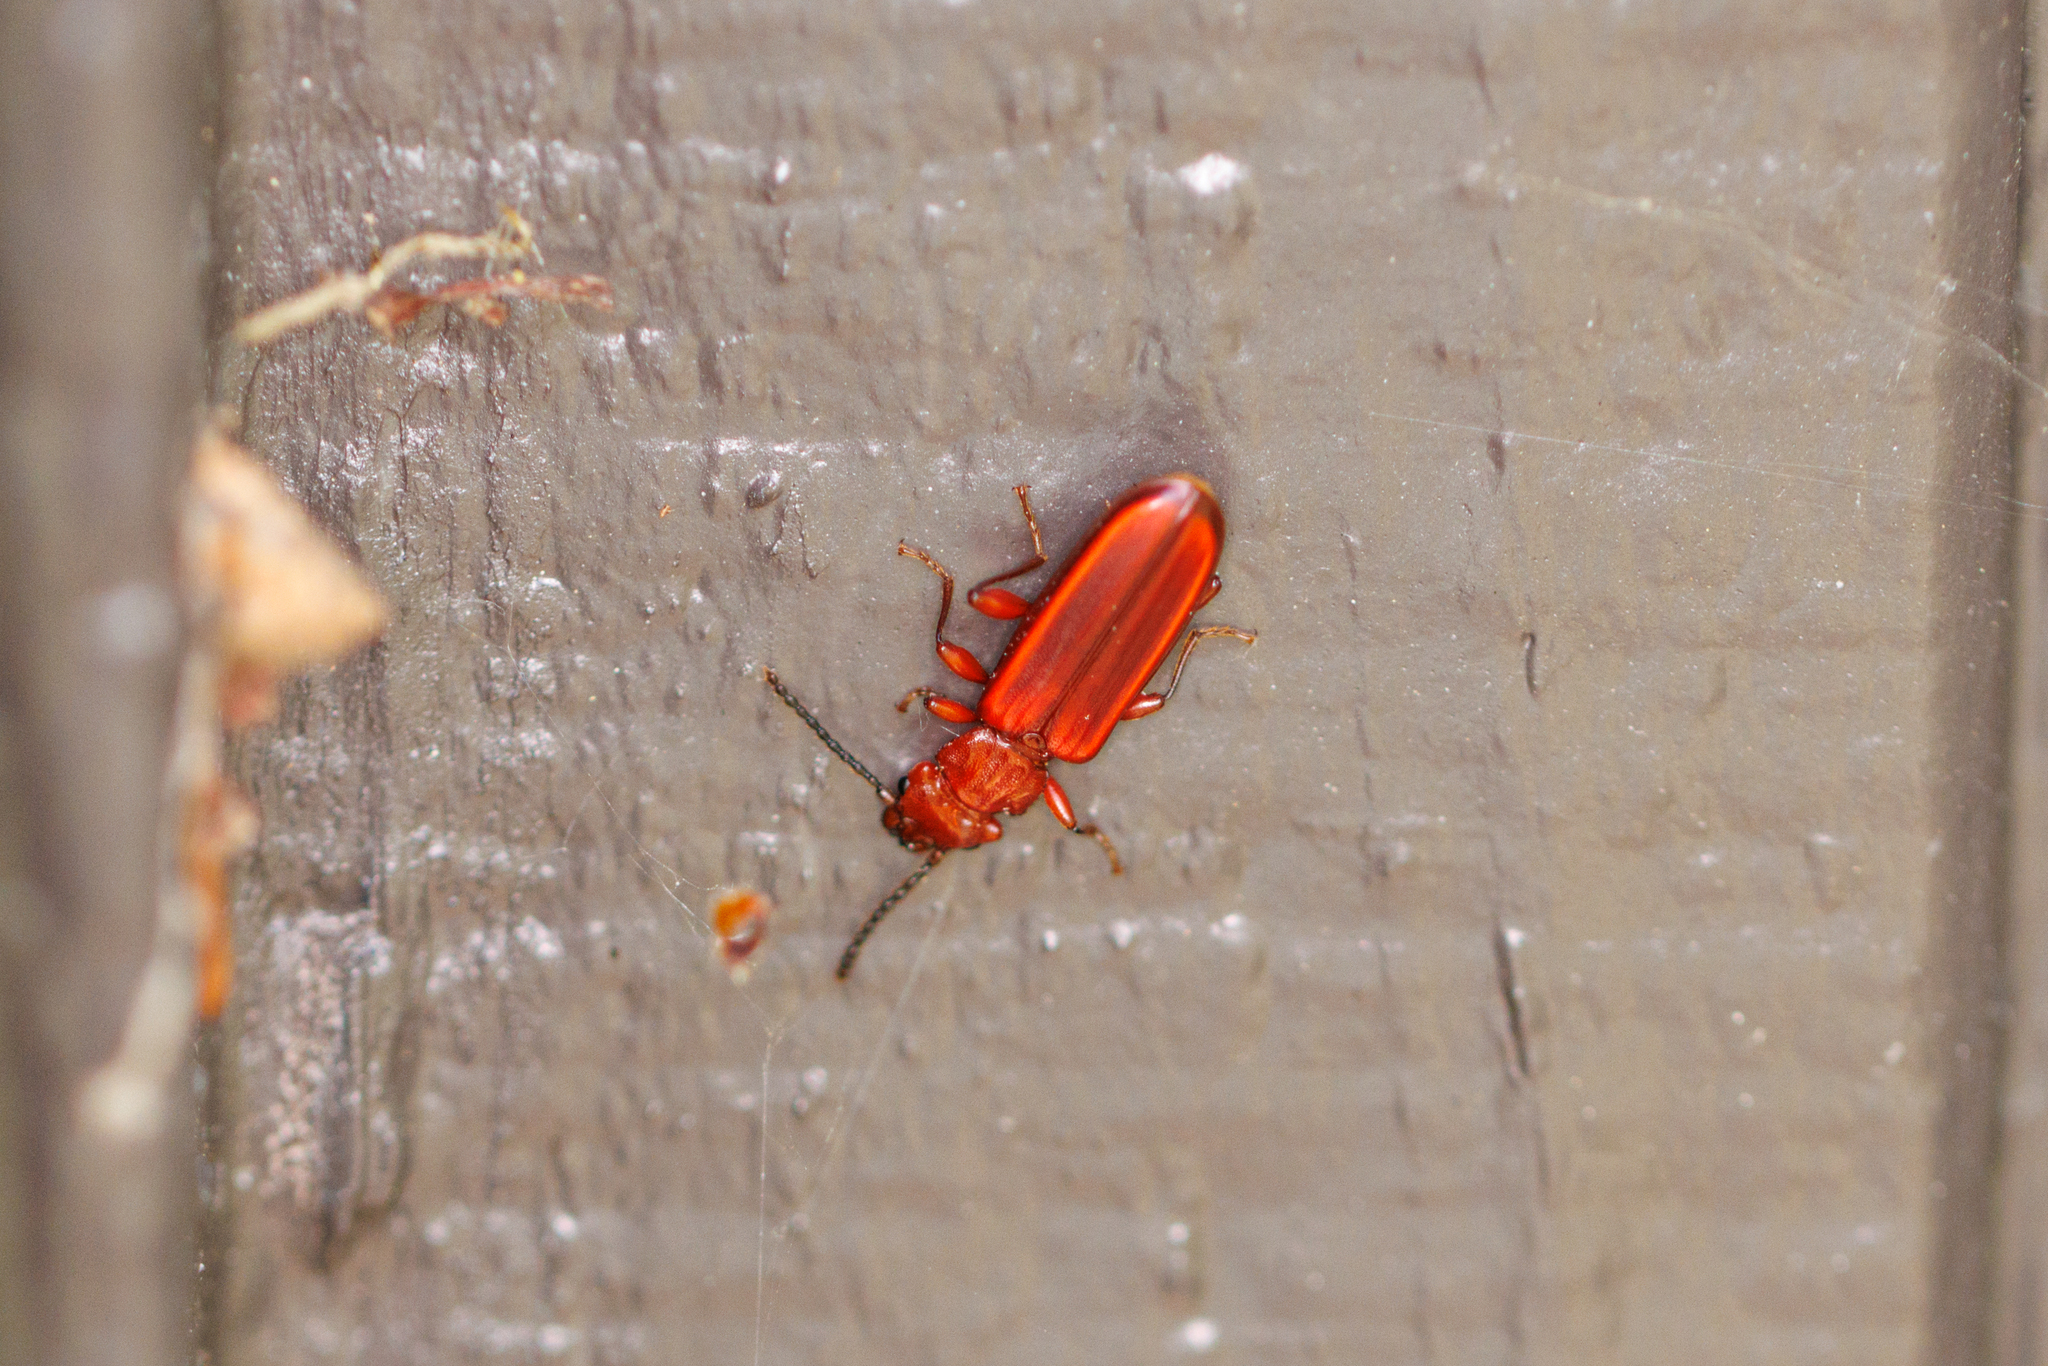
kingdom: Animalia
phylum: Arthropoda
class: Insecta
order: Coleoptera
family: Cucujidae
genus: Cucujus
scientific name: Cucujus clavipes
